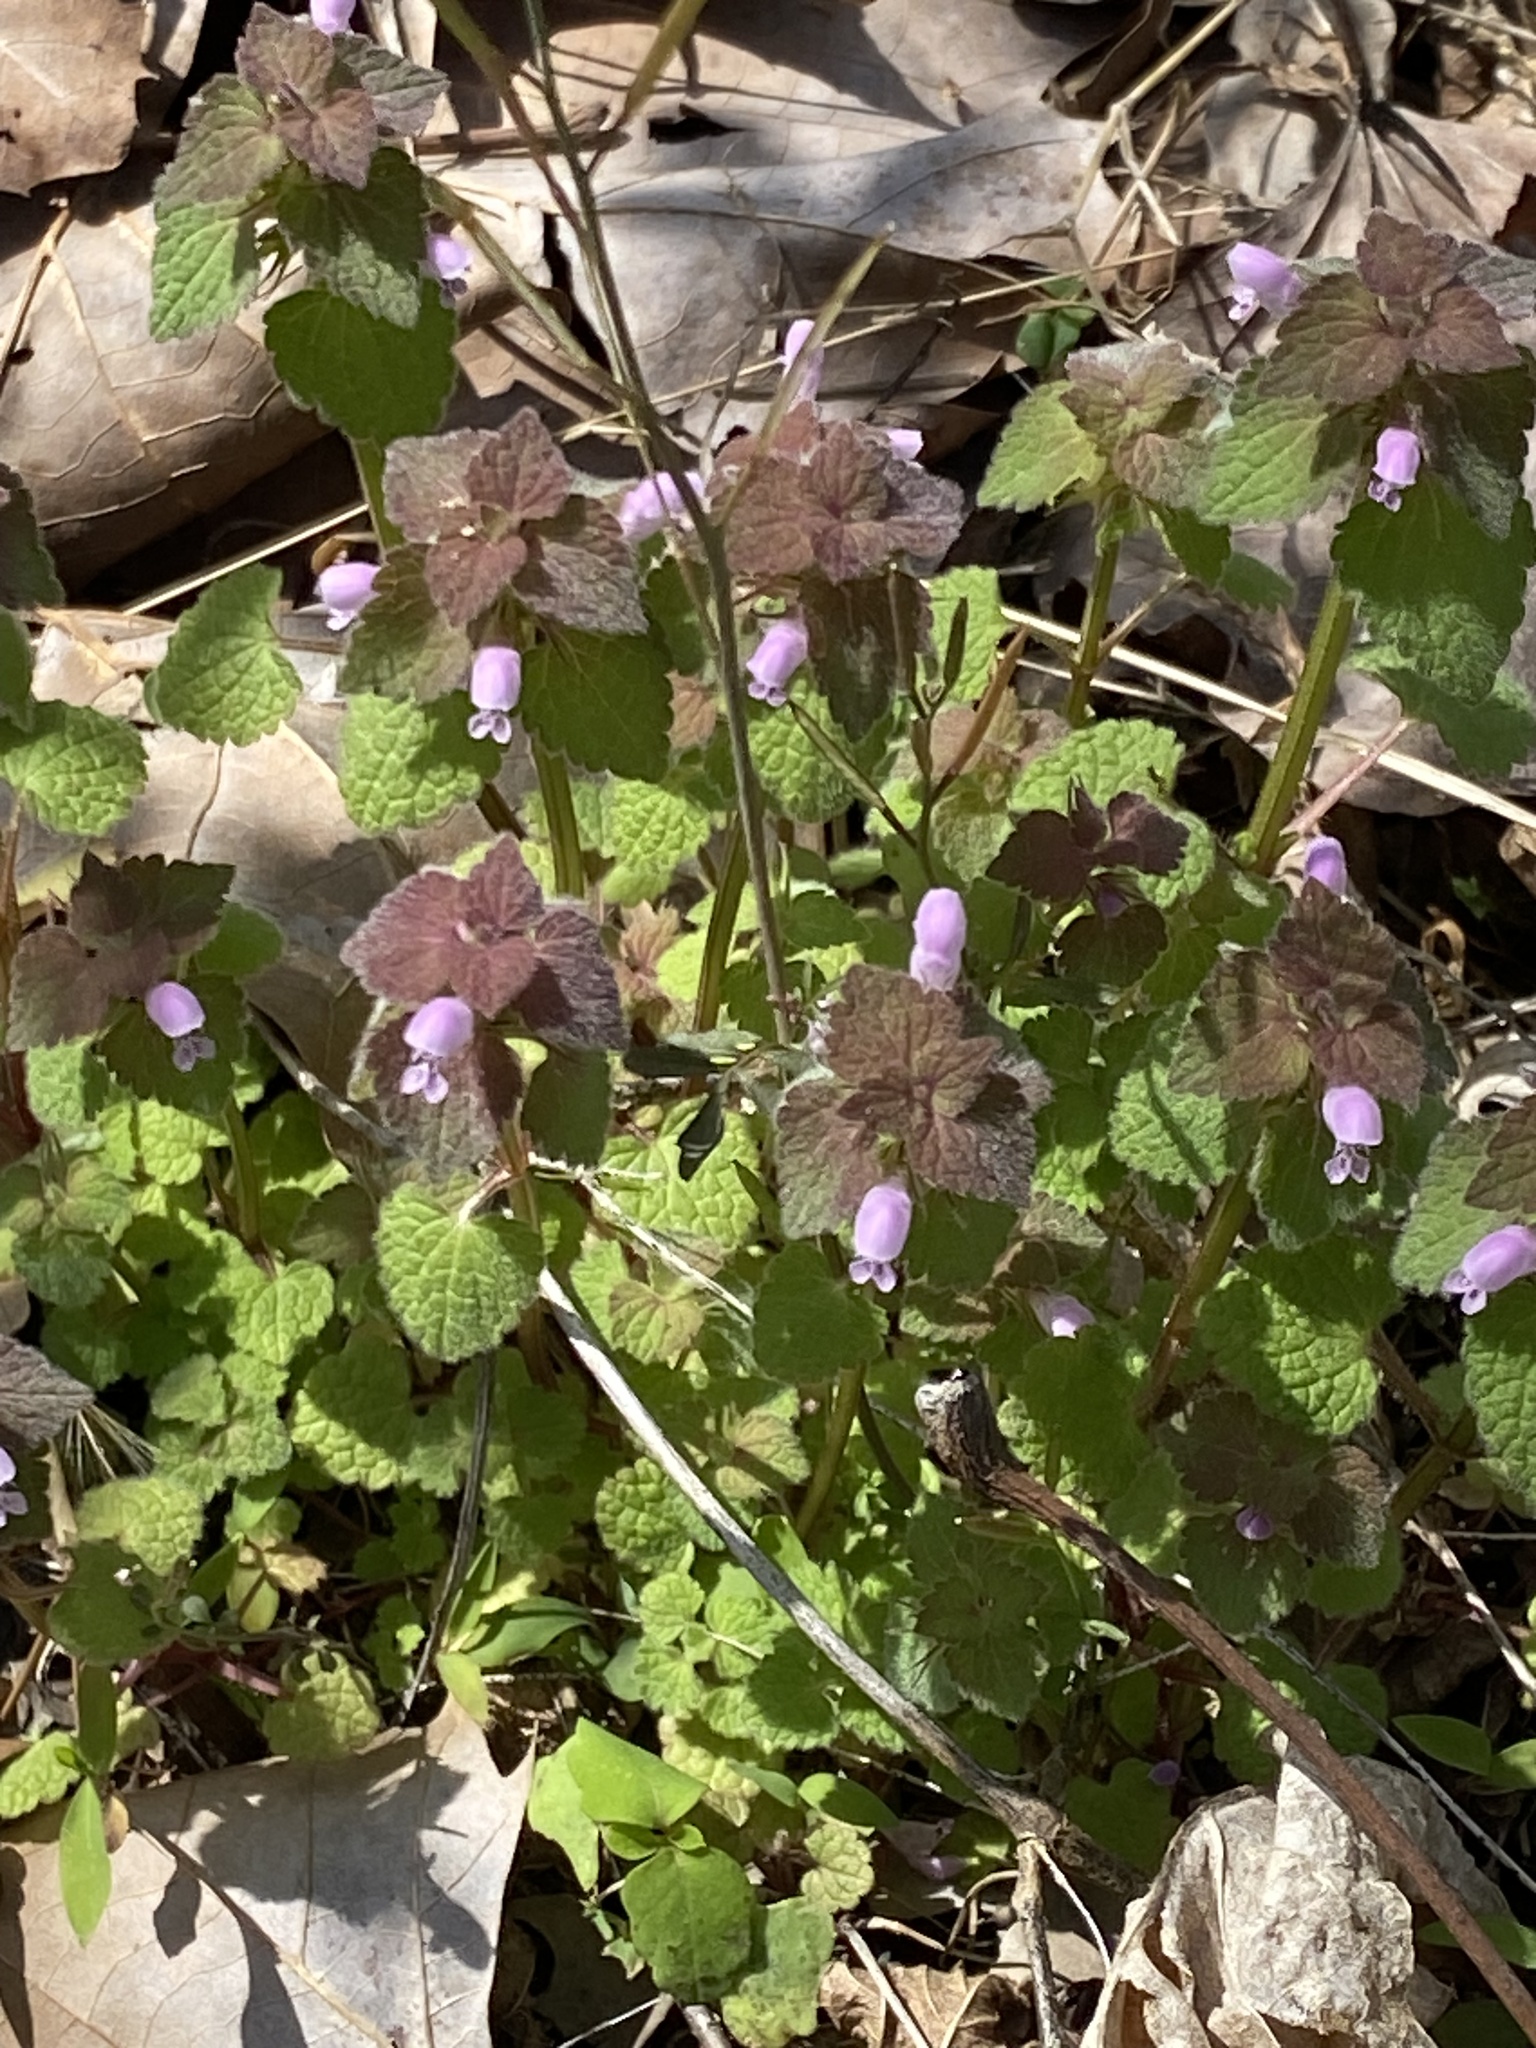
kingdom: Plantae
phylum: Tracheophyta
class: Magnoliopsida
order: Lamiales
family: Lamiaceae
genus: Lamium
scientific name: Lamium purpureum
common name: Red dead-nettle
